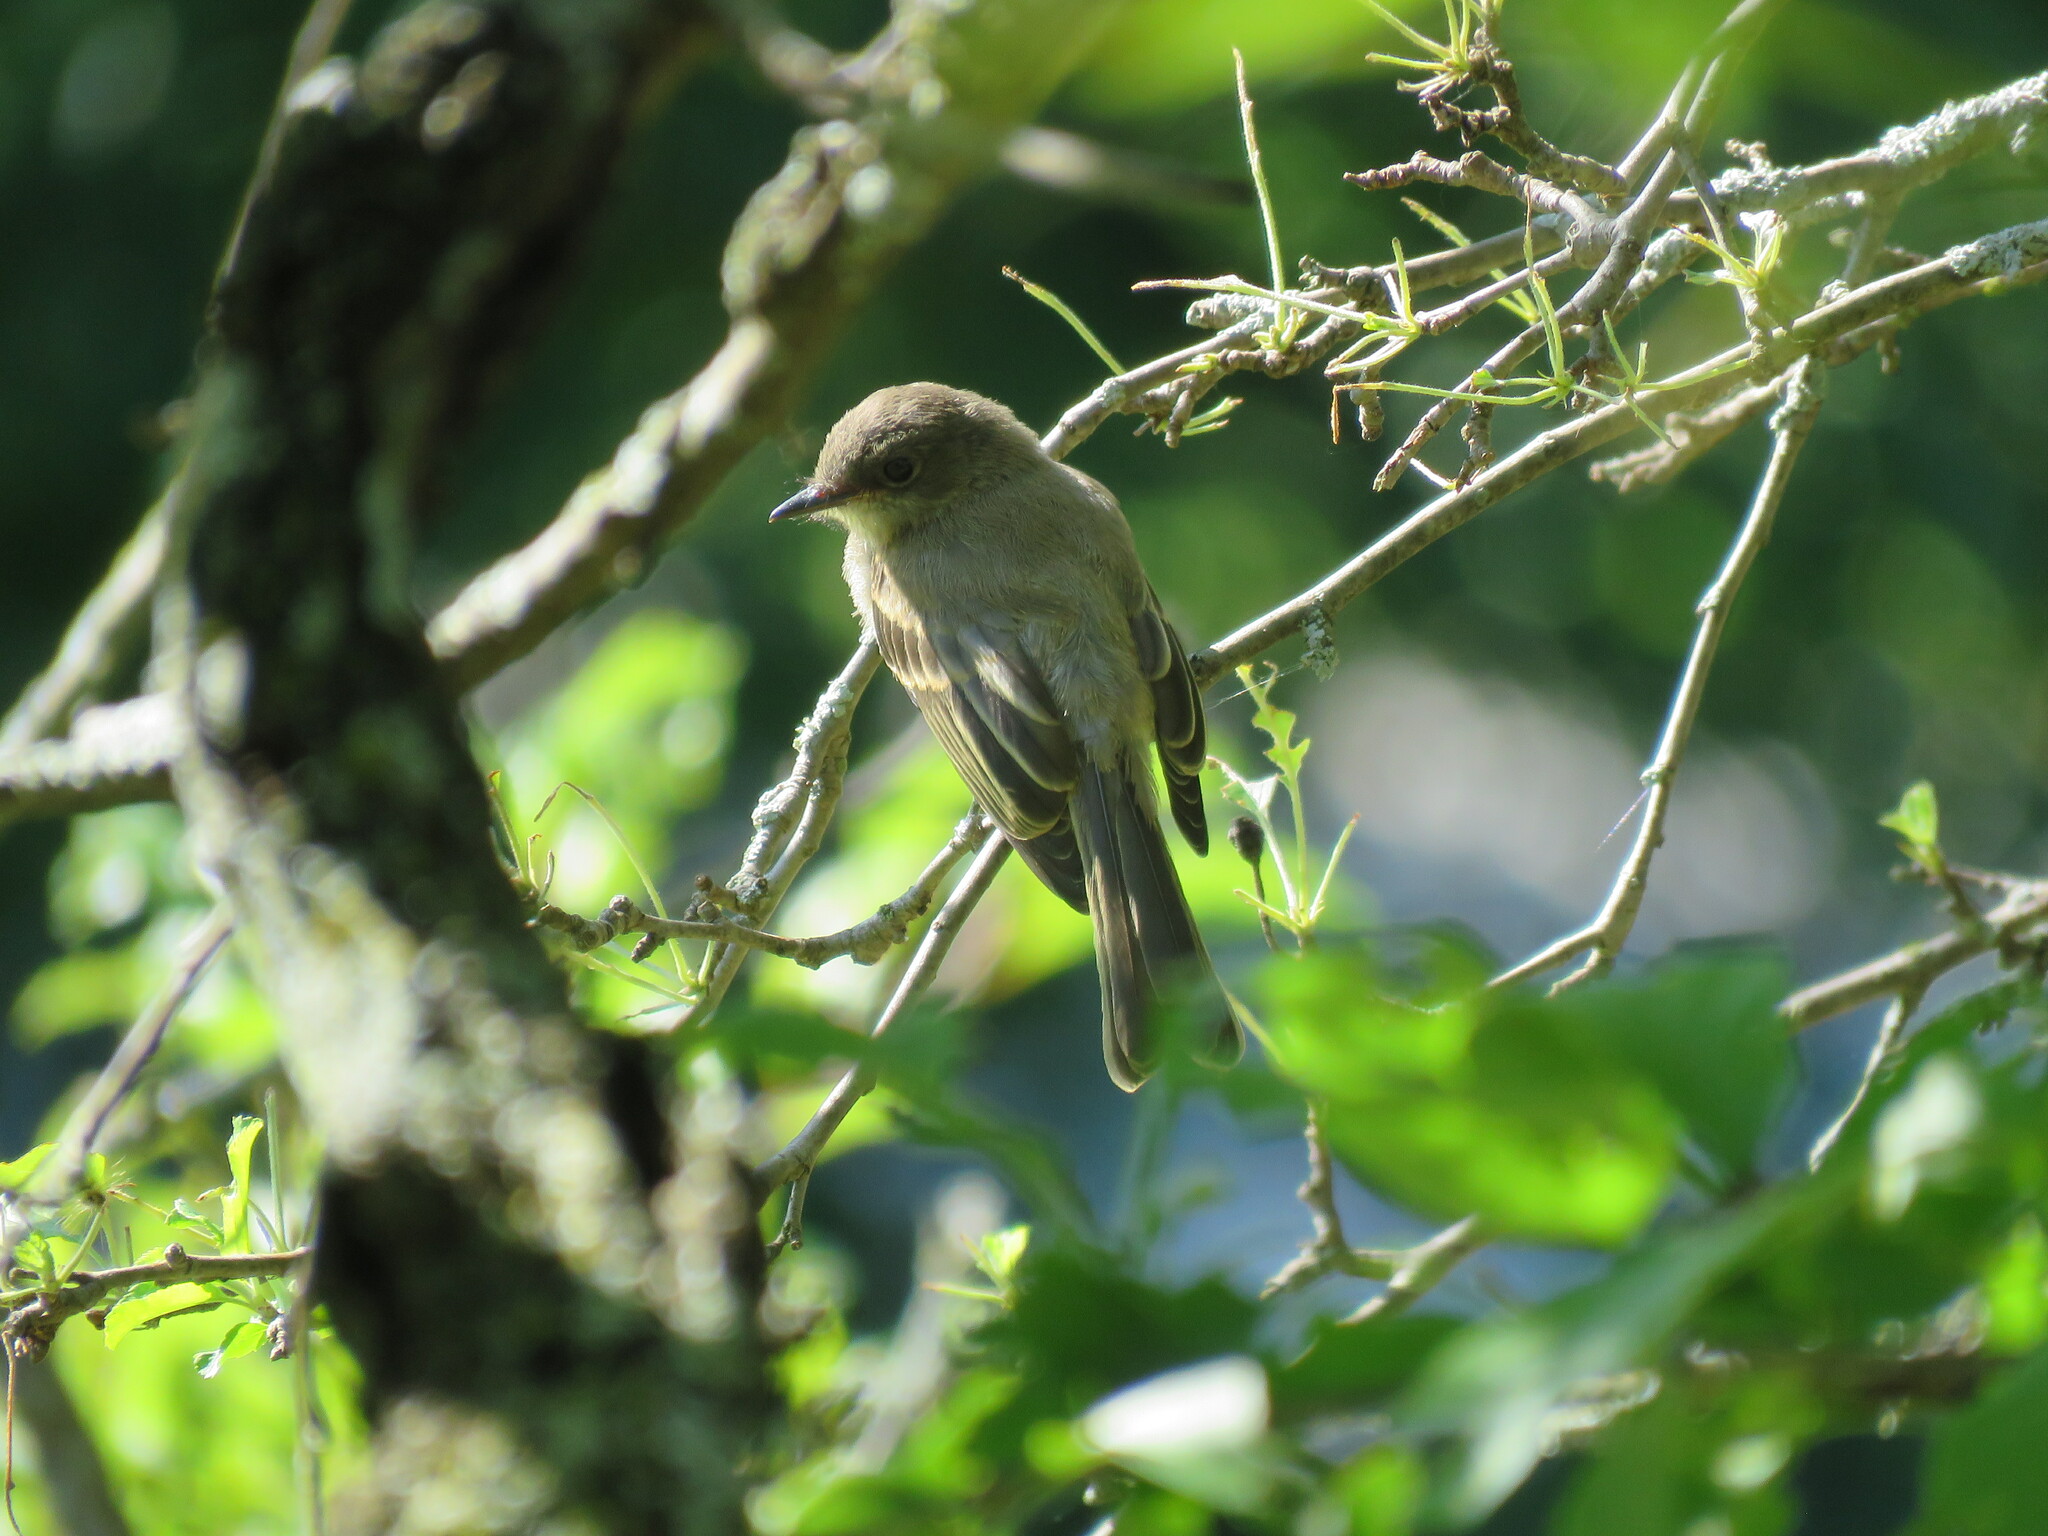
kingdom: Animalia
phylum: Chordata
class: Aves
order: Passeriformes
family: Tyrannidae
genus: Sayornis
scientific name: Sayornis phoebe
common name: Eastern phoebe
